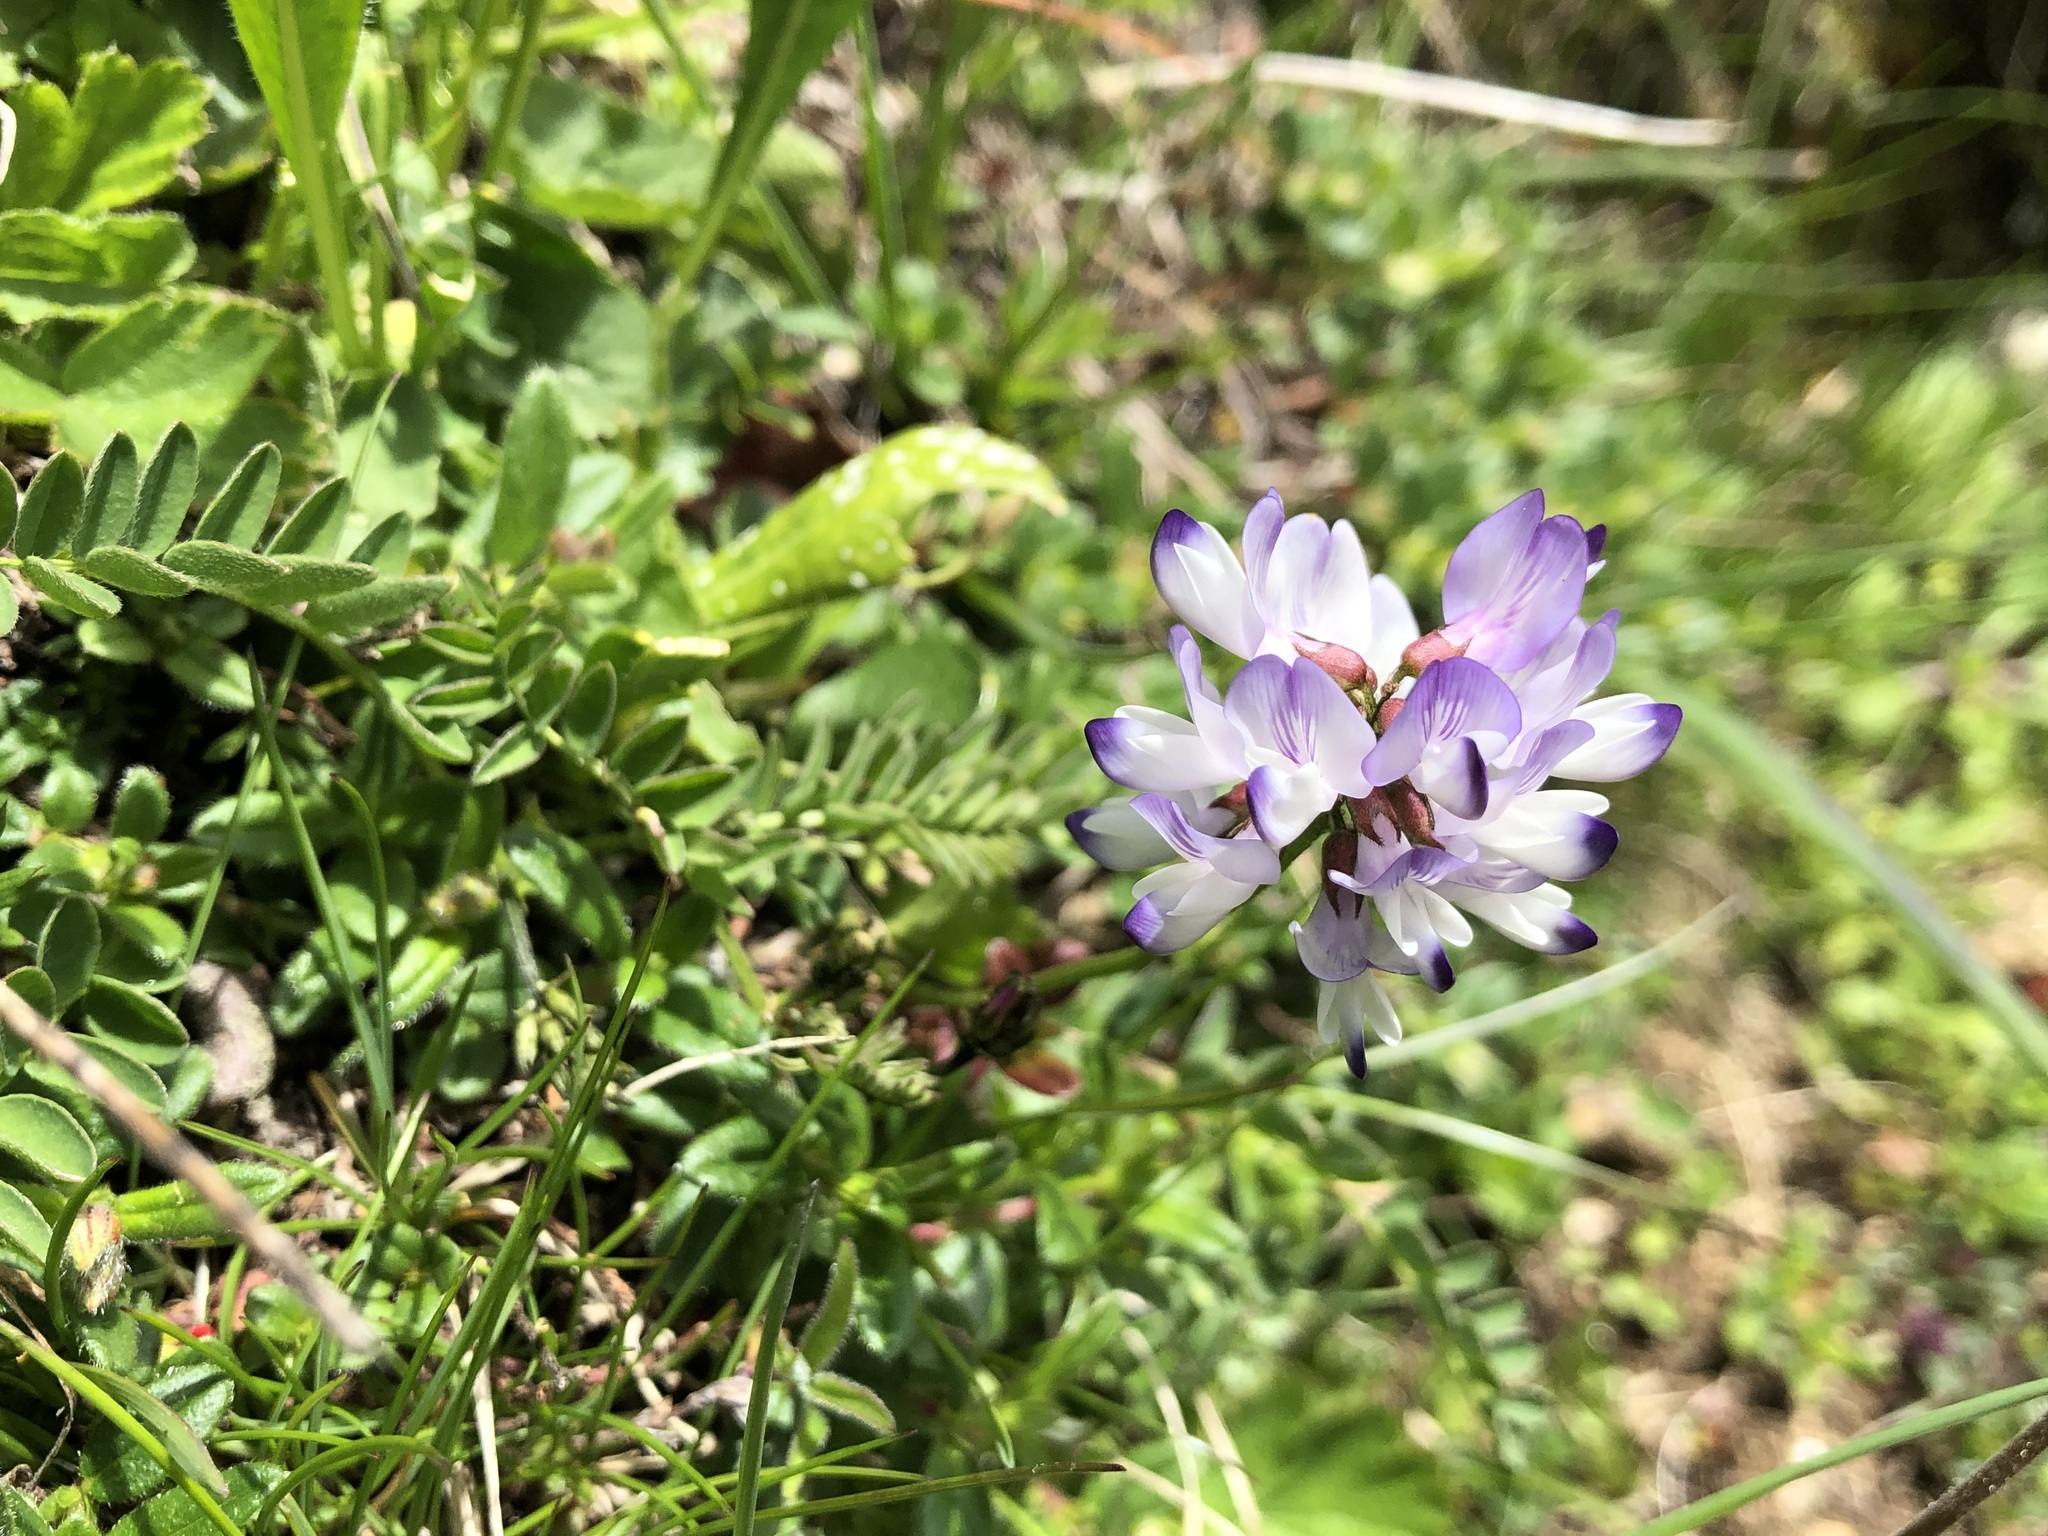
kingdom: Plantae
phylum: Tracheophyta
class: Magnoliopsida
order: Fabales
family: Fabaceae
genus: Astragalus
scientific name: Astragalus alpinus
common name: Alpine milk-vetch
